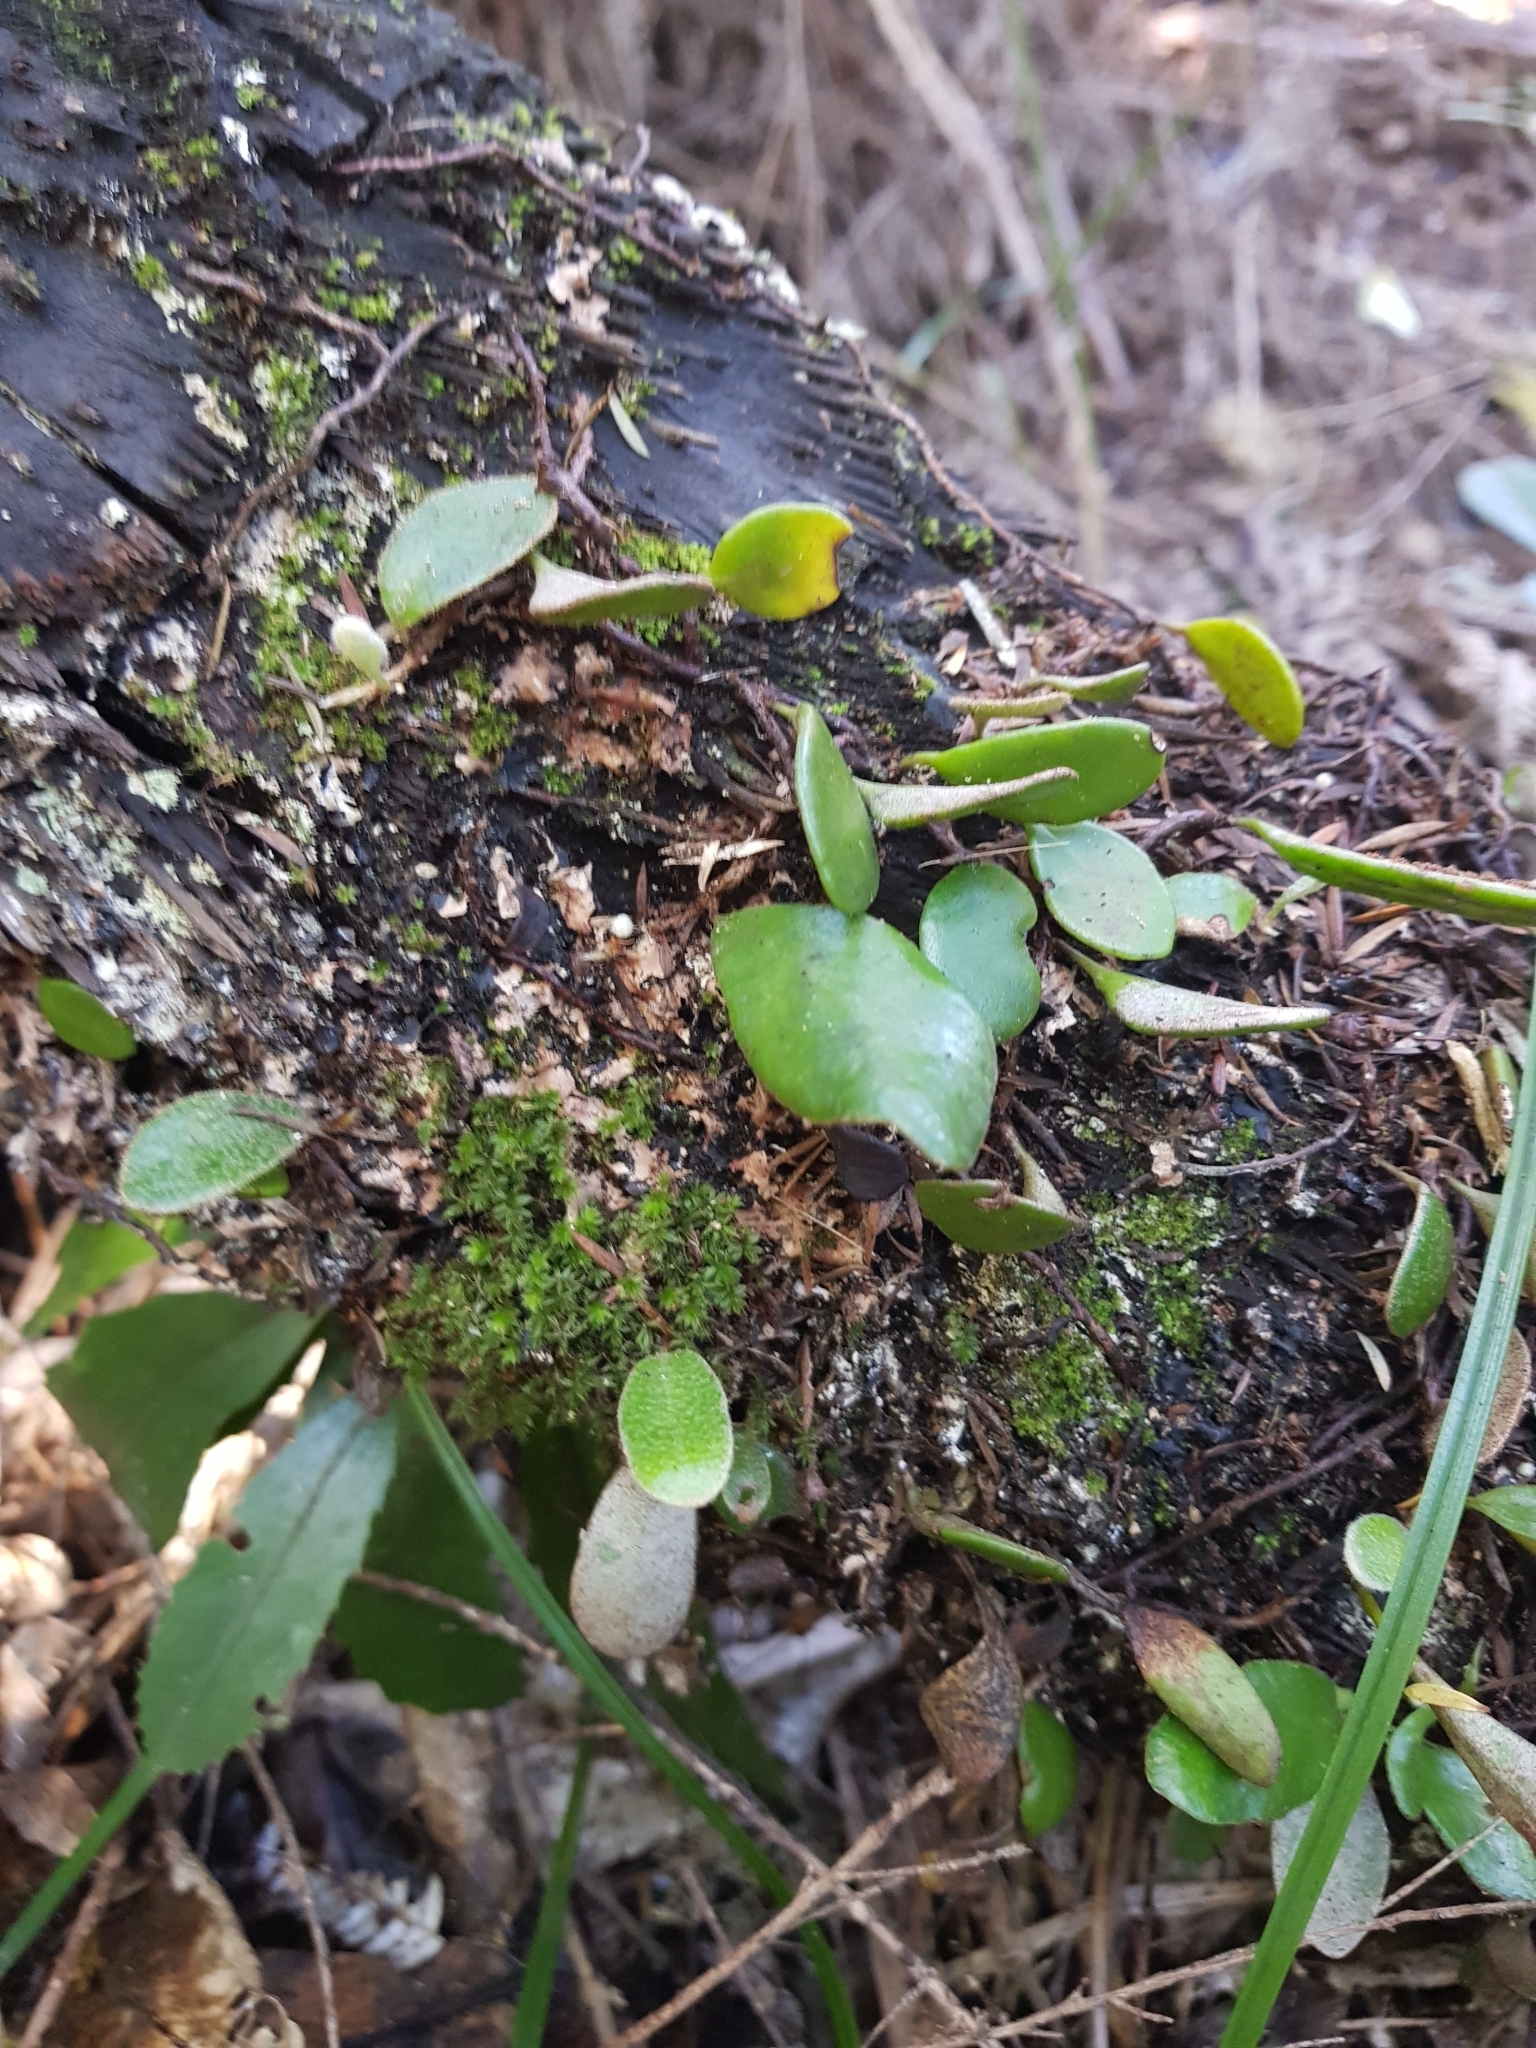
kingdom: Plantae
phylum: Tracheophyta
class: Polypodiopsida
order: Polypodiales
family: Polypodiaceae
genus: Pyrrosia
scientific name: Pyrrosia eleagnifolia
